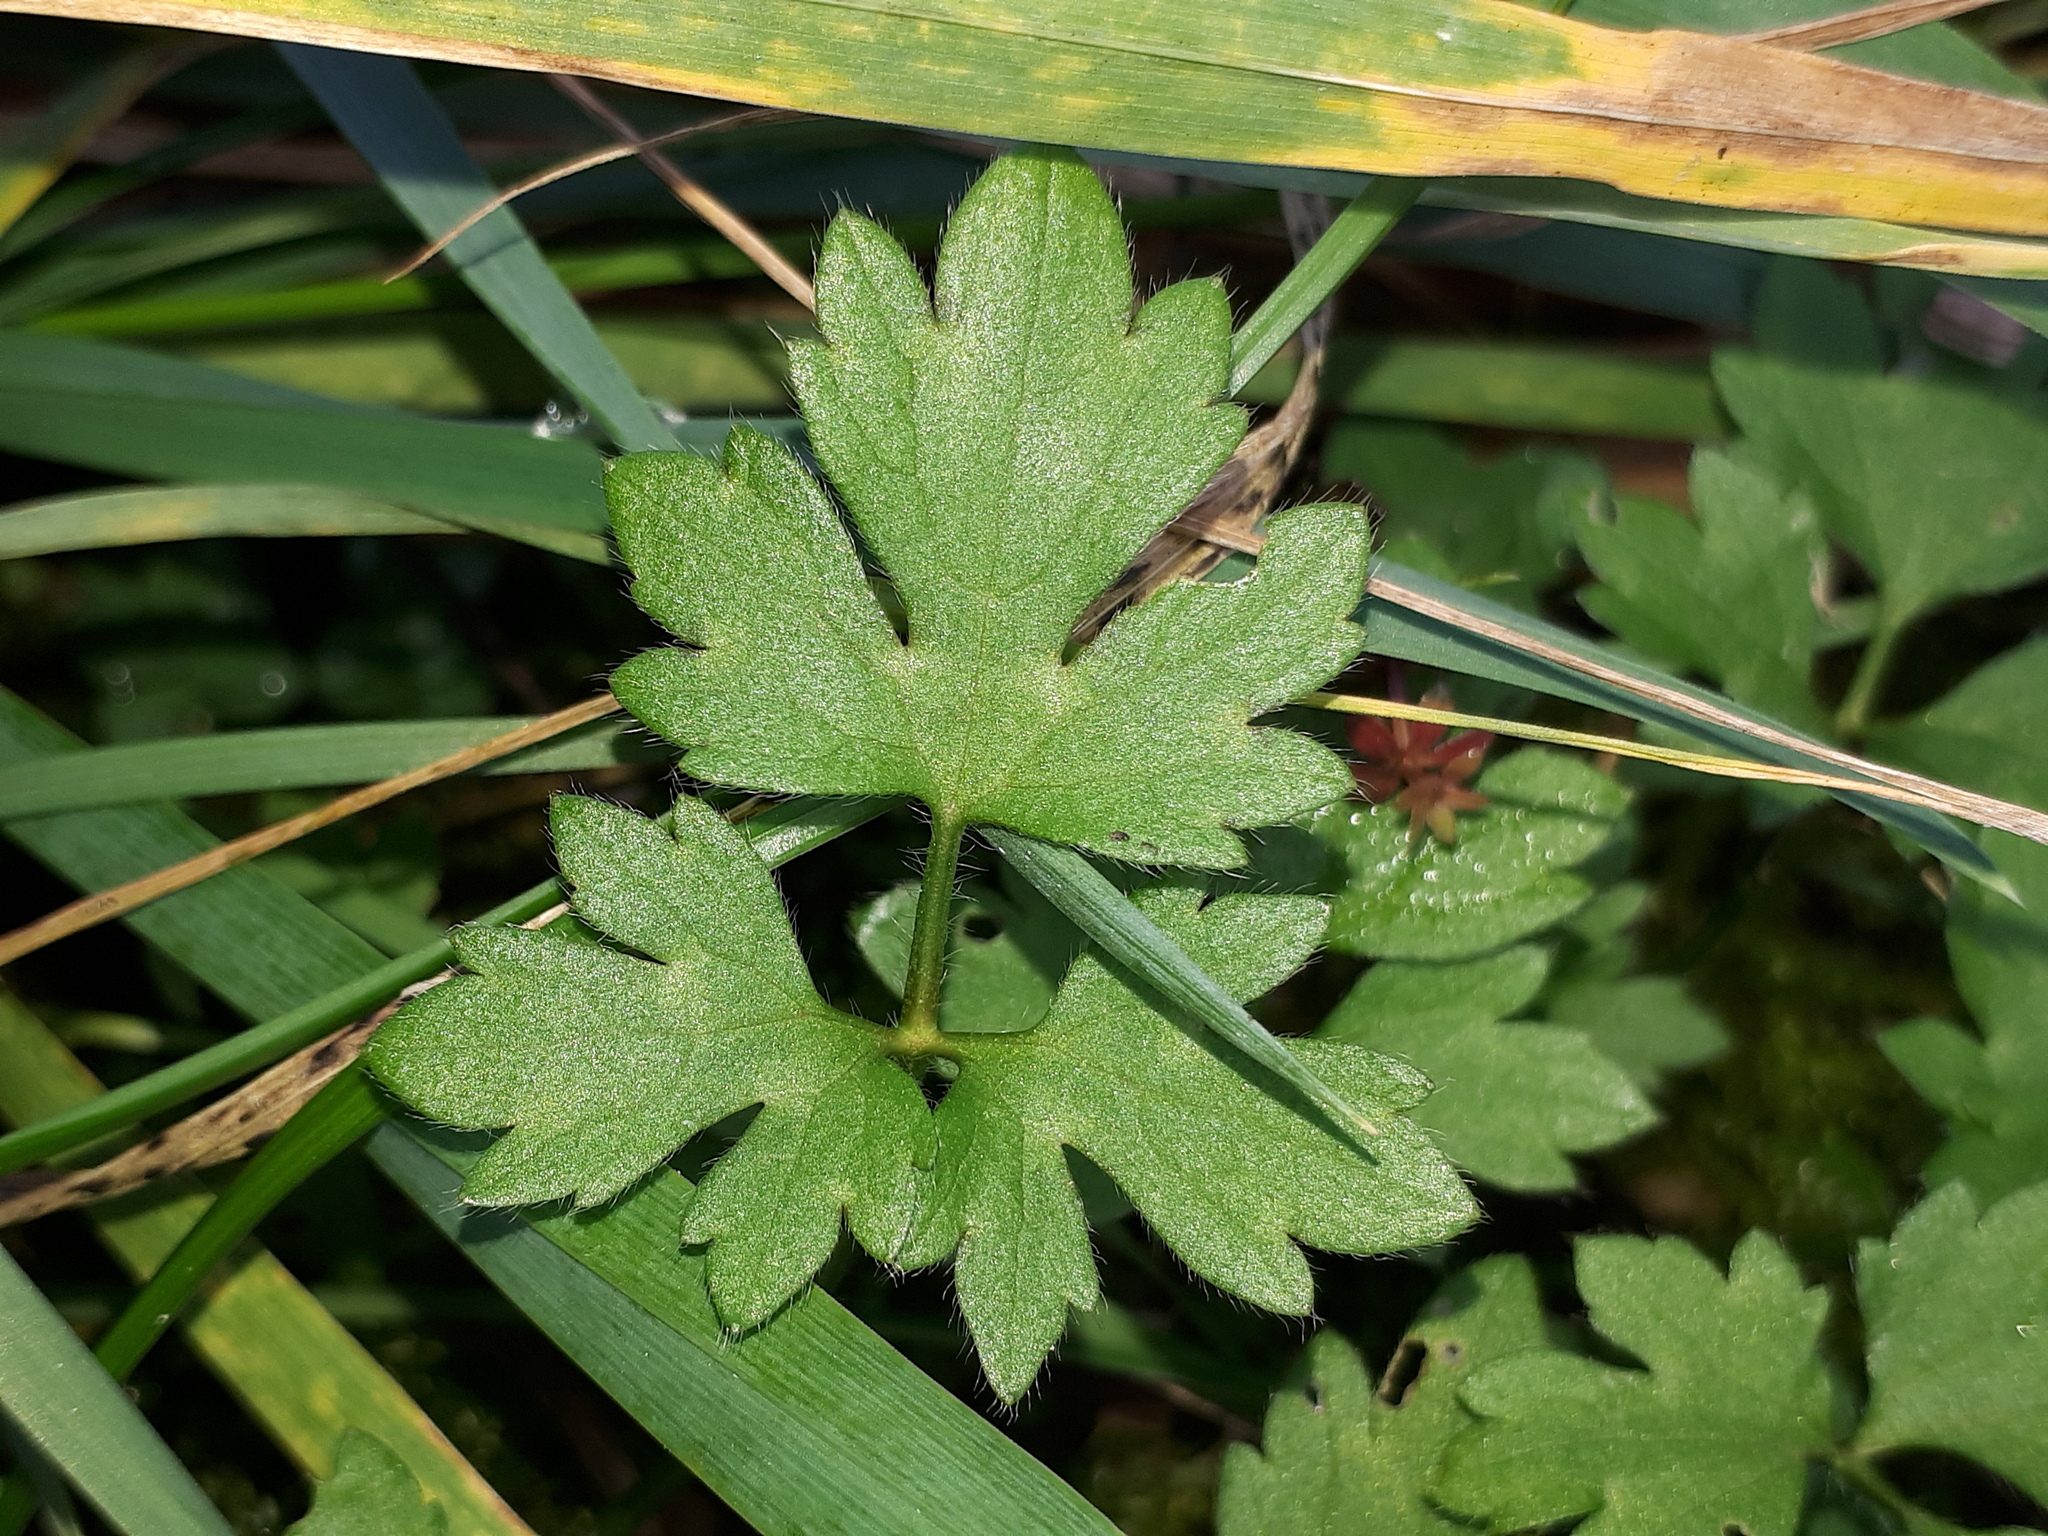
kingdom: Plantae
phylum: Tracheophyta
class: Magnoliopsida
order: Ranunculales
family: Ranunculaceae
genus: Ranunculus
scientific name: Ranunculus repens
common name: Creeping buttercup
